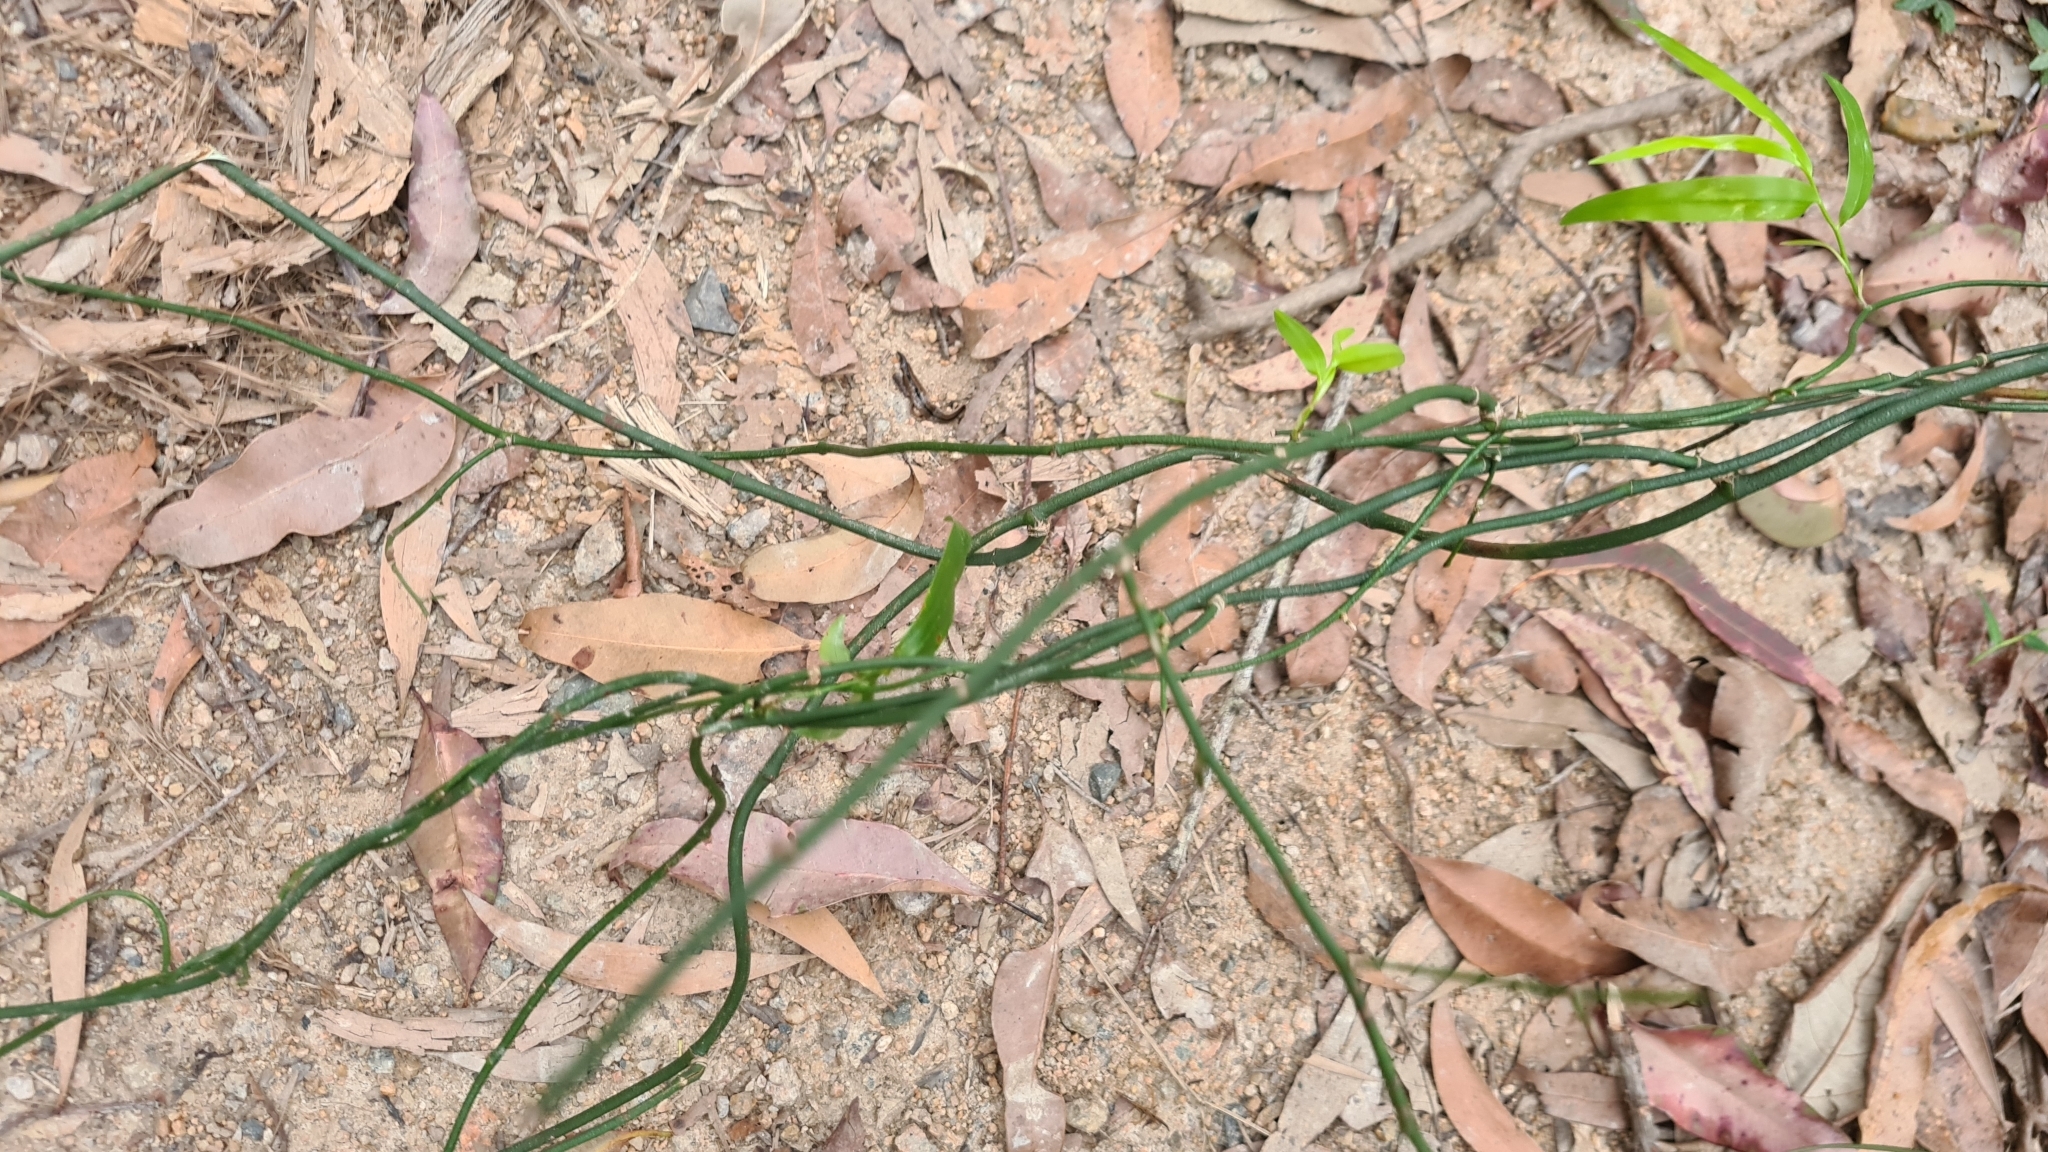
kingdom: Plantae
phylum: Tracheophyta
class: Liliopsida
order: Asparagales
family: Asphodelaceae
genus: Geitonoplesium
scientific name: Geitonoplesium cymosum
